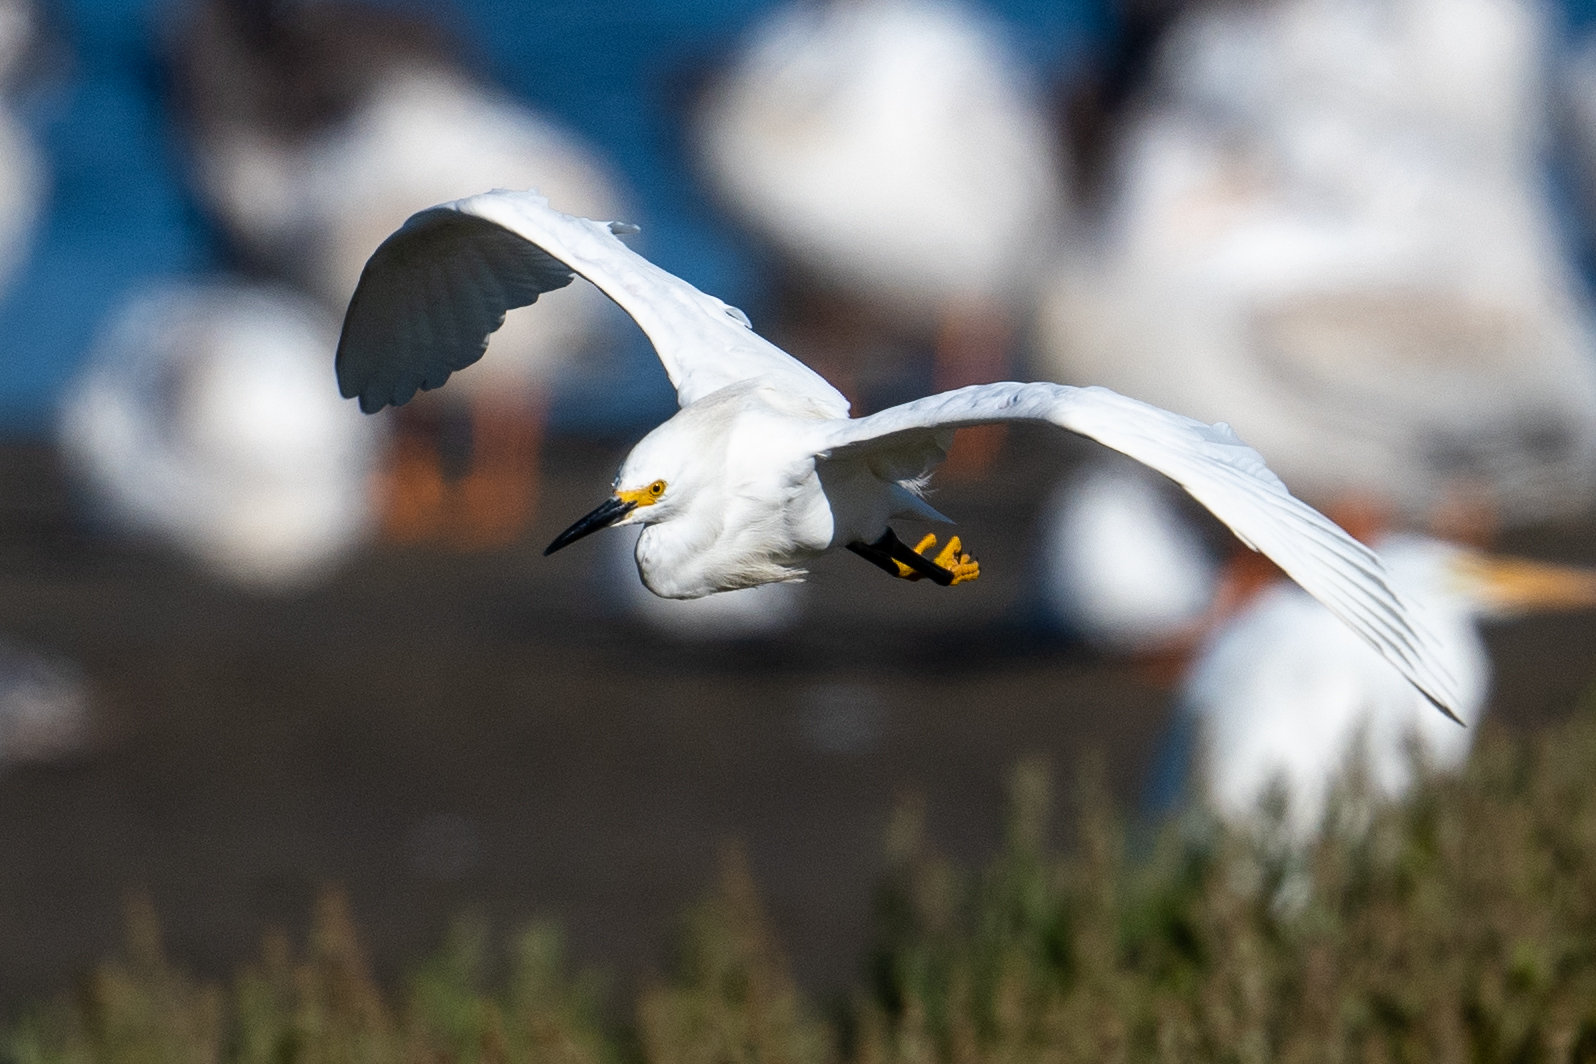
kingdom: Animalia
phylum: Chordata
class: Aves
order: Pelecaniformes
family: Ardeidae
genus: Egretta
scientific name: Egretta thula
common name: Snowy egret
